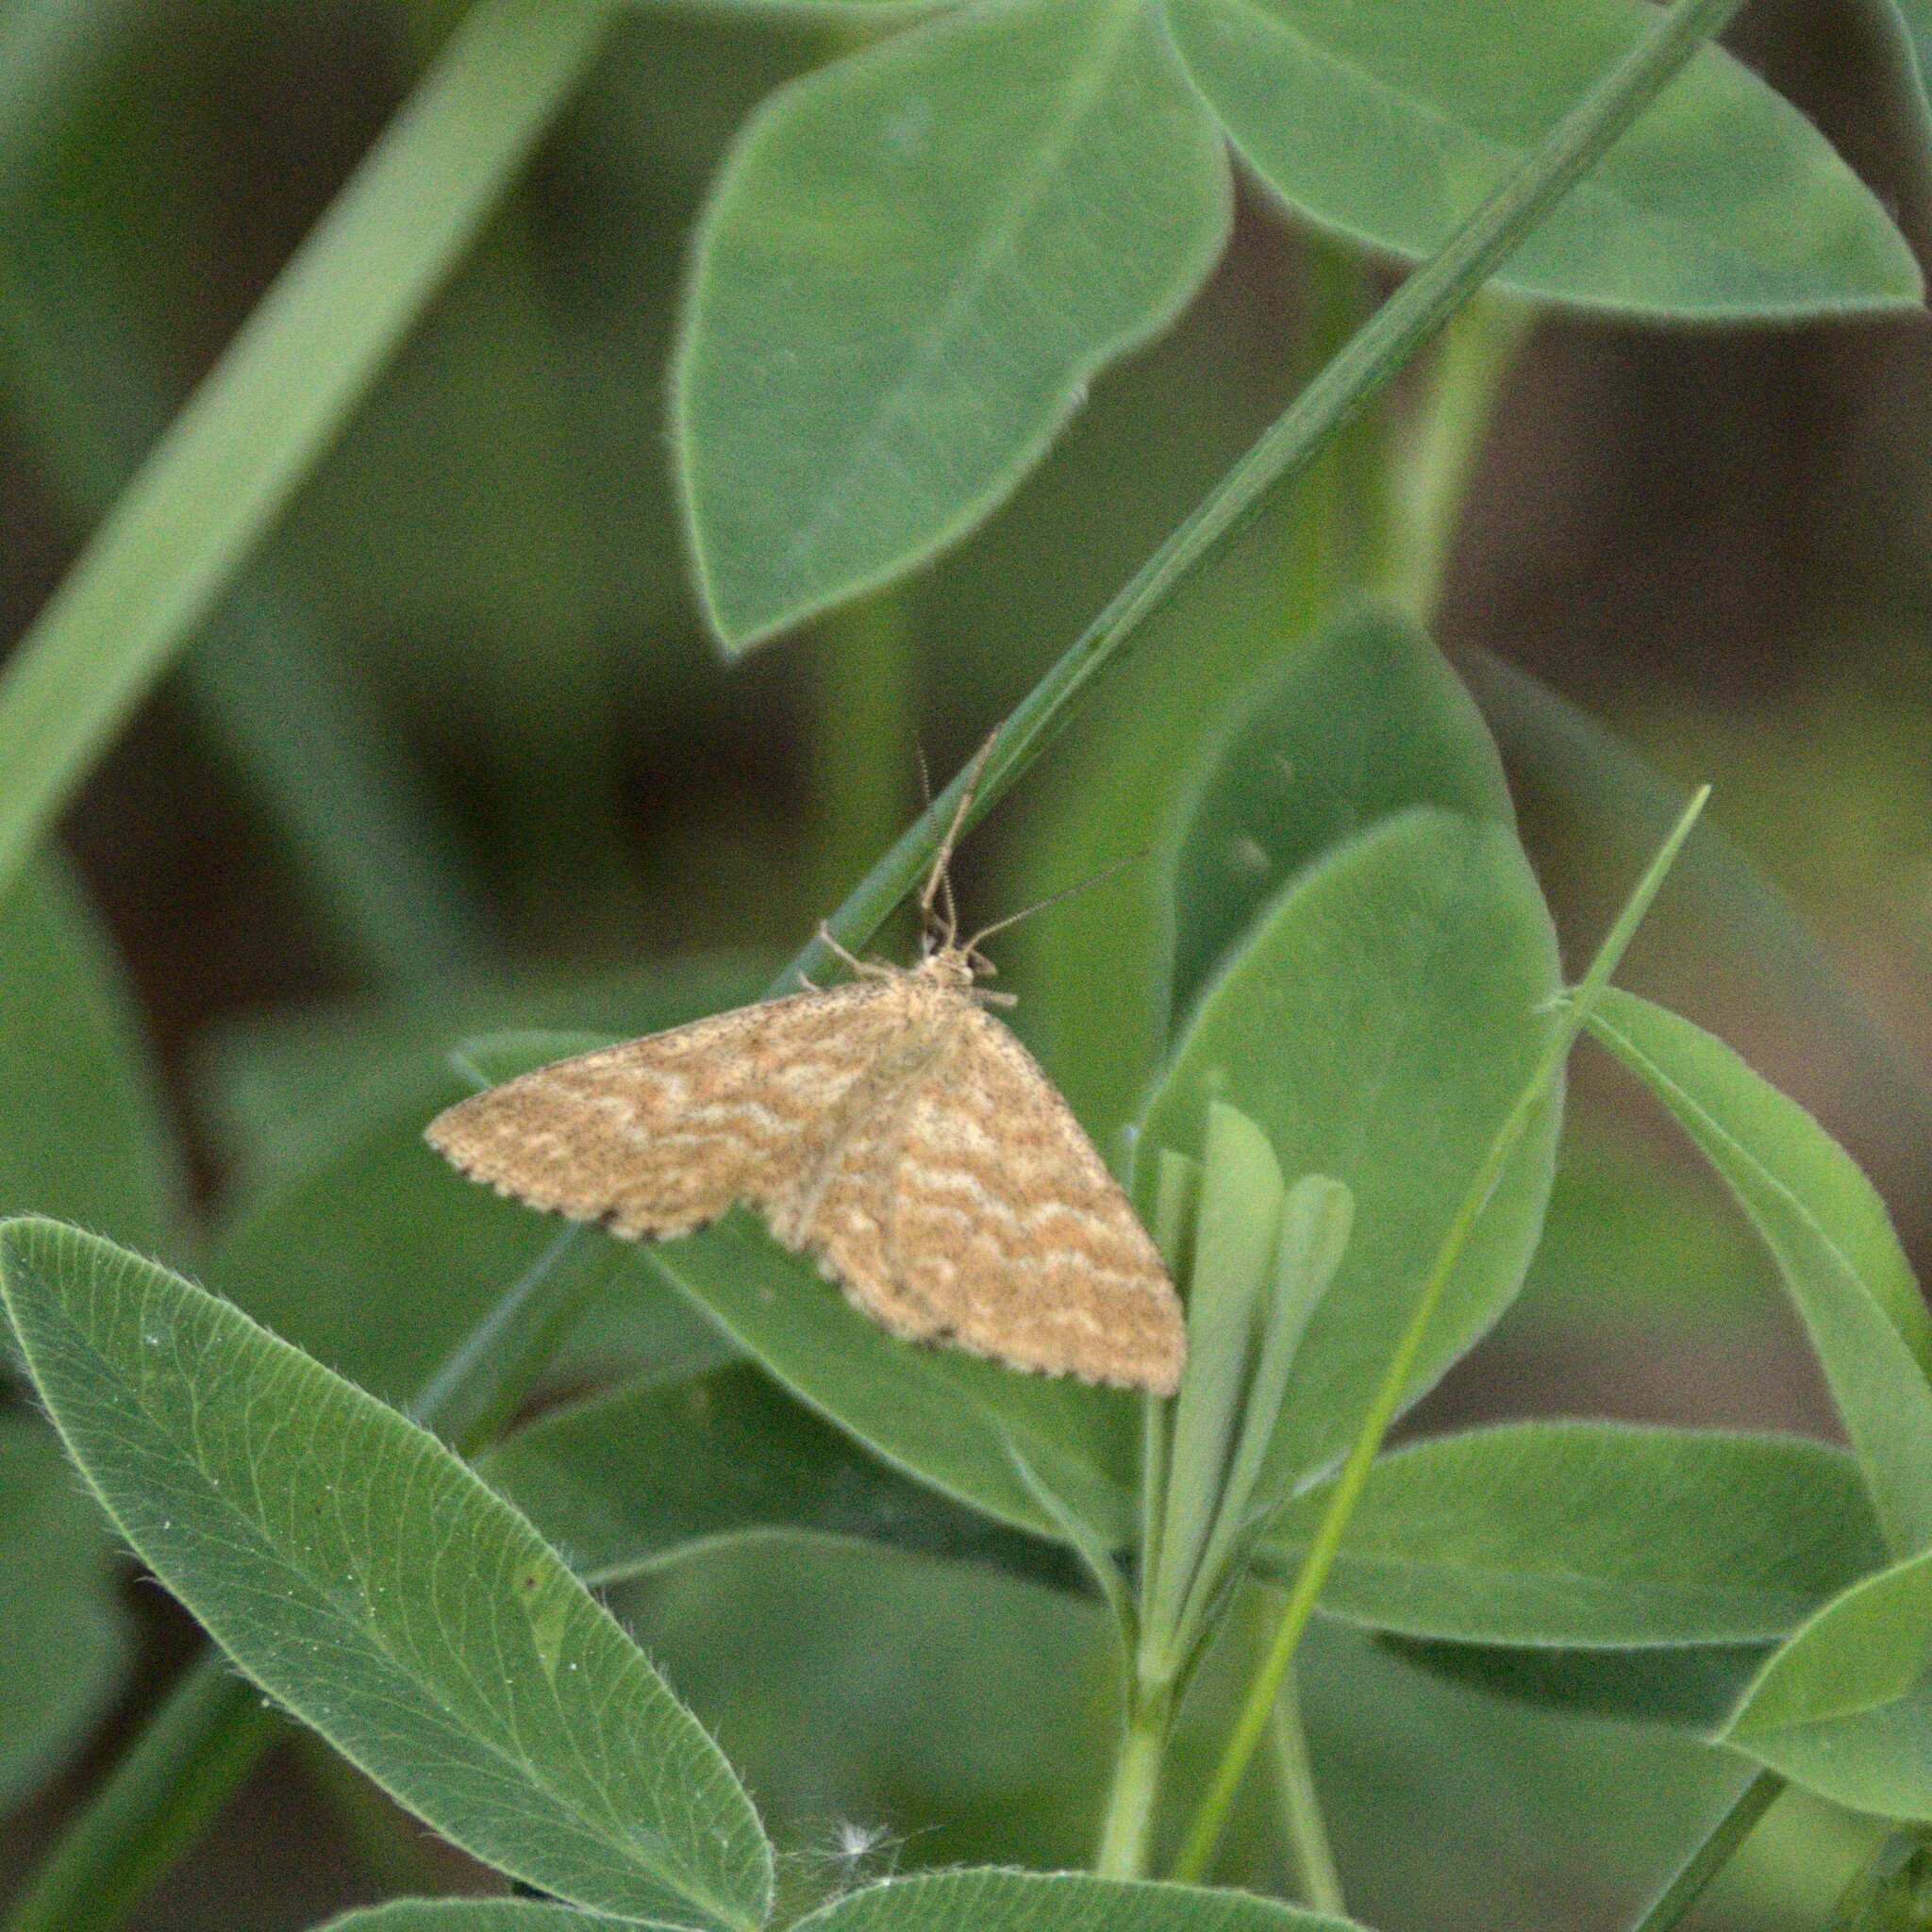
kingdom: Animalia
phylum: Arthropoda
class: Insecta
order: Lepidoptera
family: Geometridae
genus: Scopula
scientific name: Scopula immorata
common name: Lewes wave
